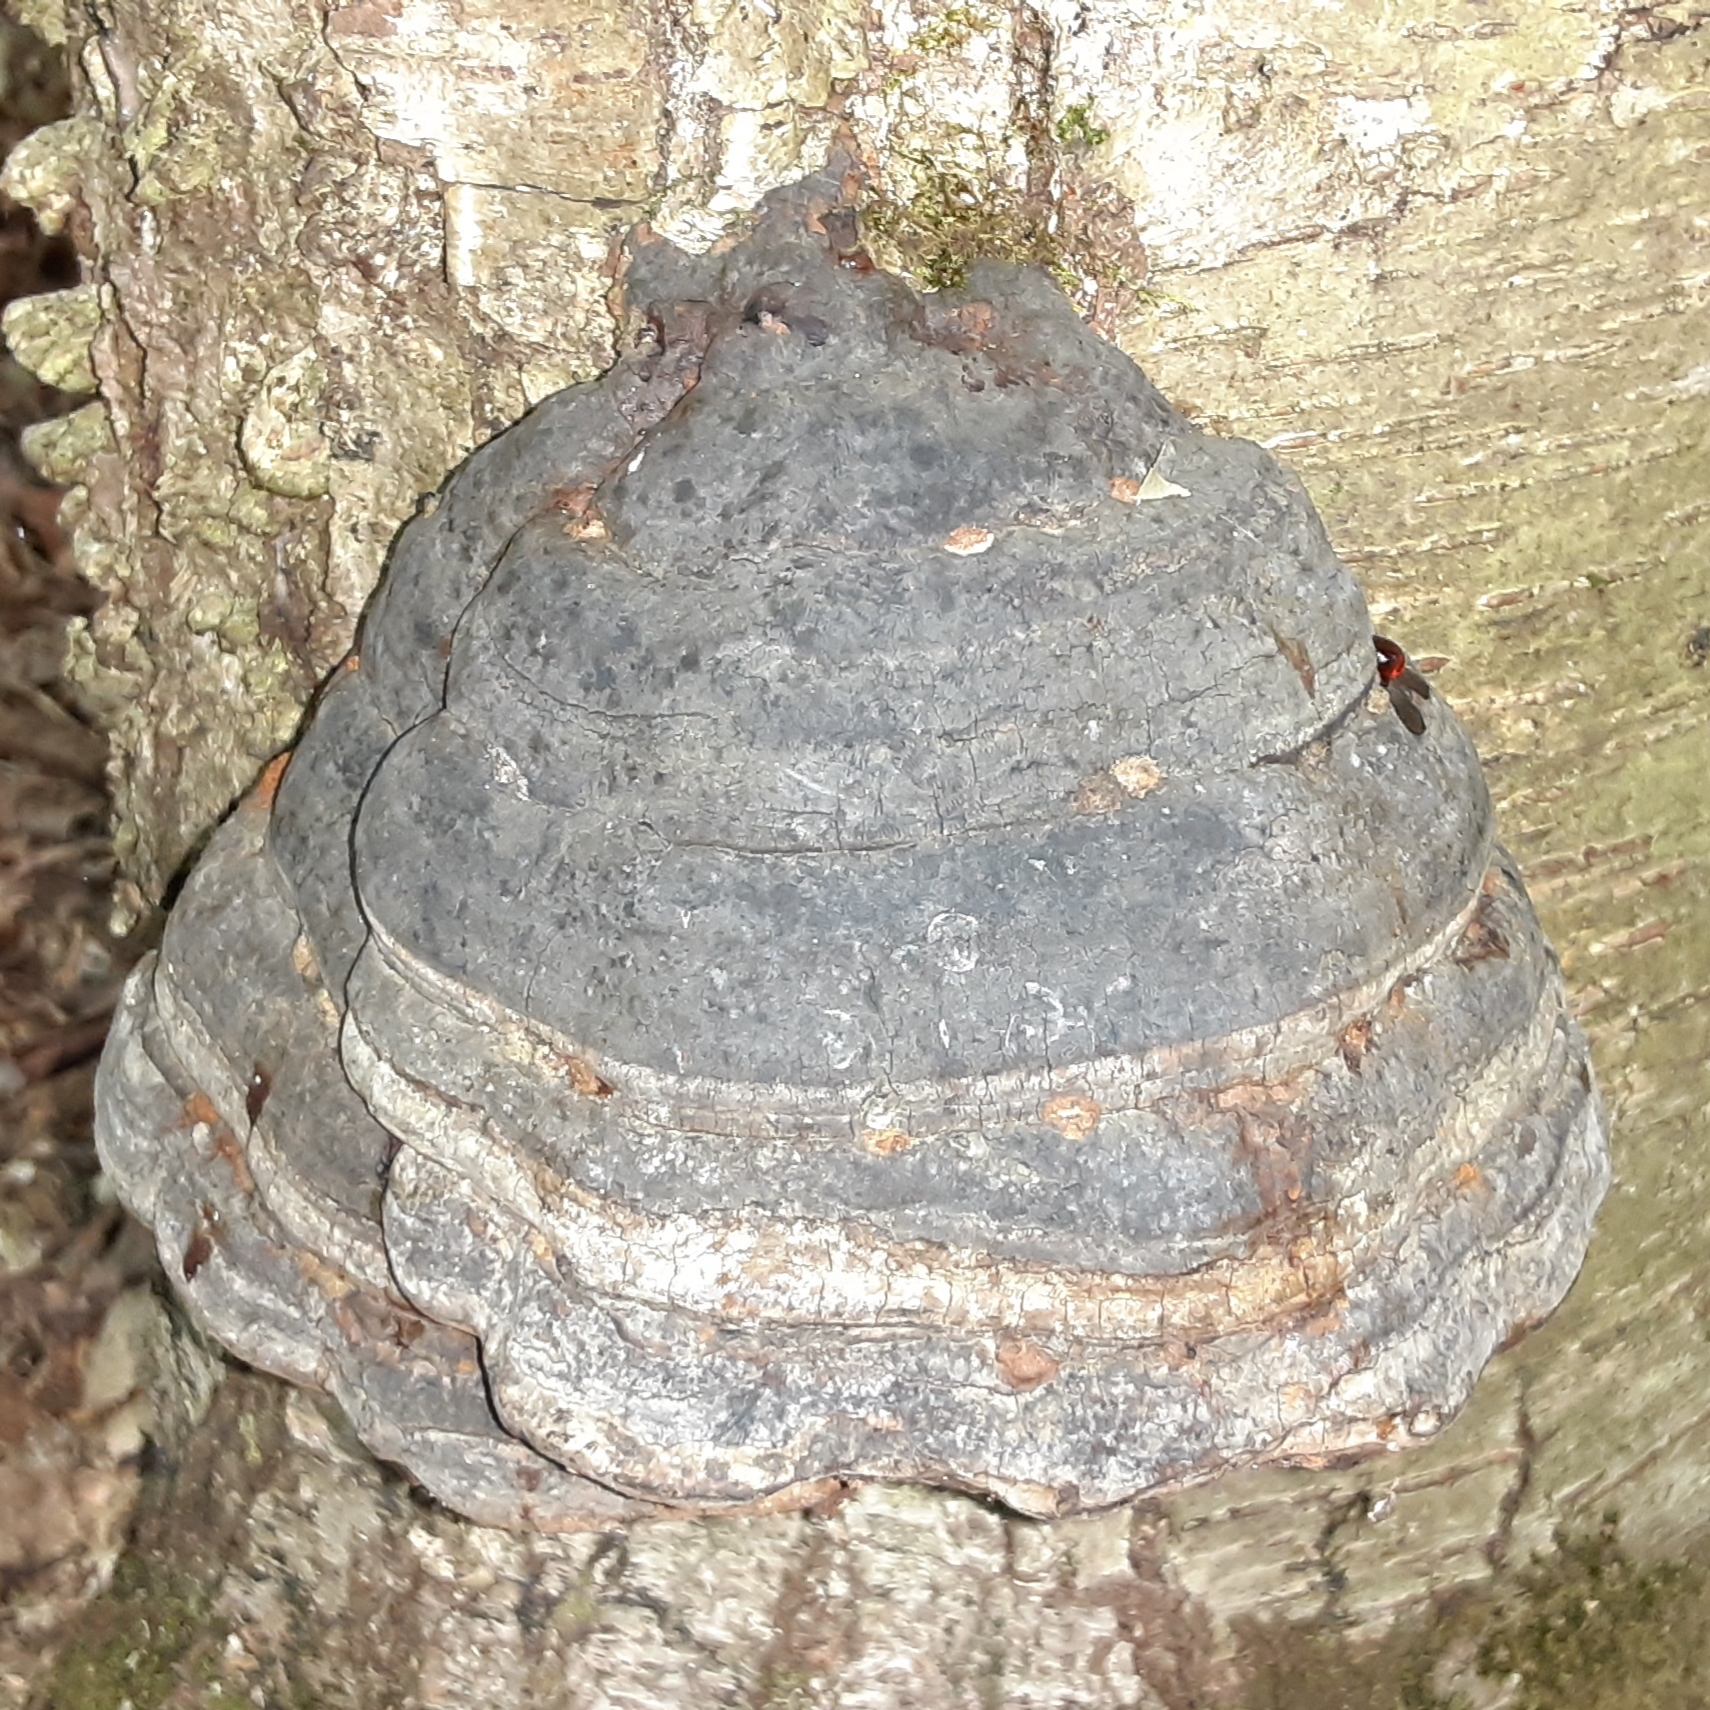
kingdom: Fungi
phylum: Basidiomycota
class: Agaricomycetes
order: Polyporales
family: Polyporaceae
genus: Fomes
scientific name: Fomes fomentarius
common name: Hoof fungus
